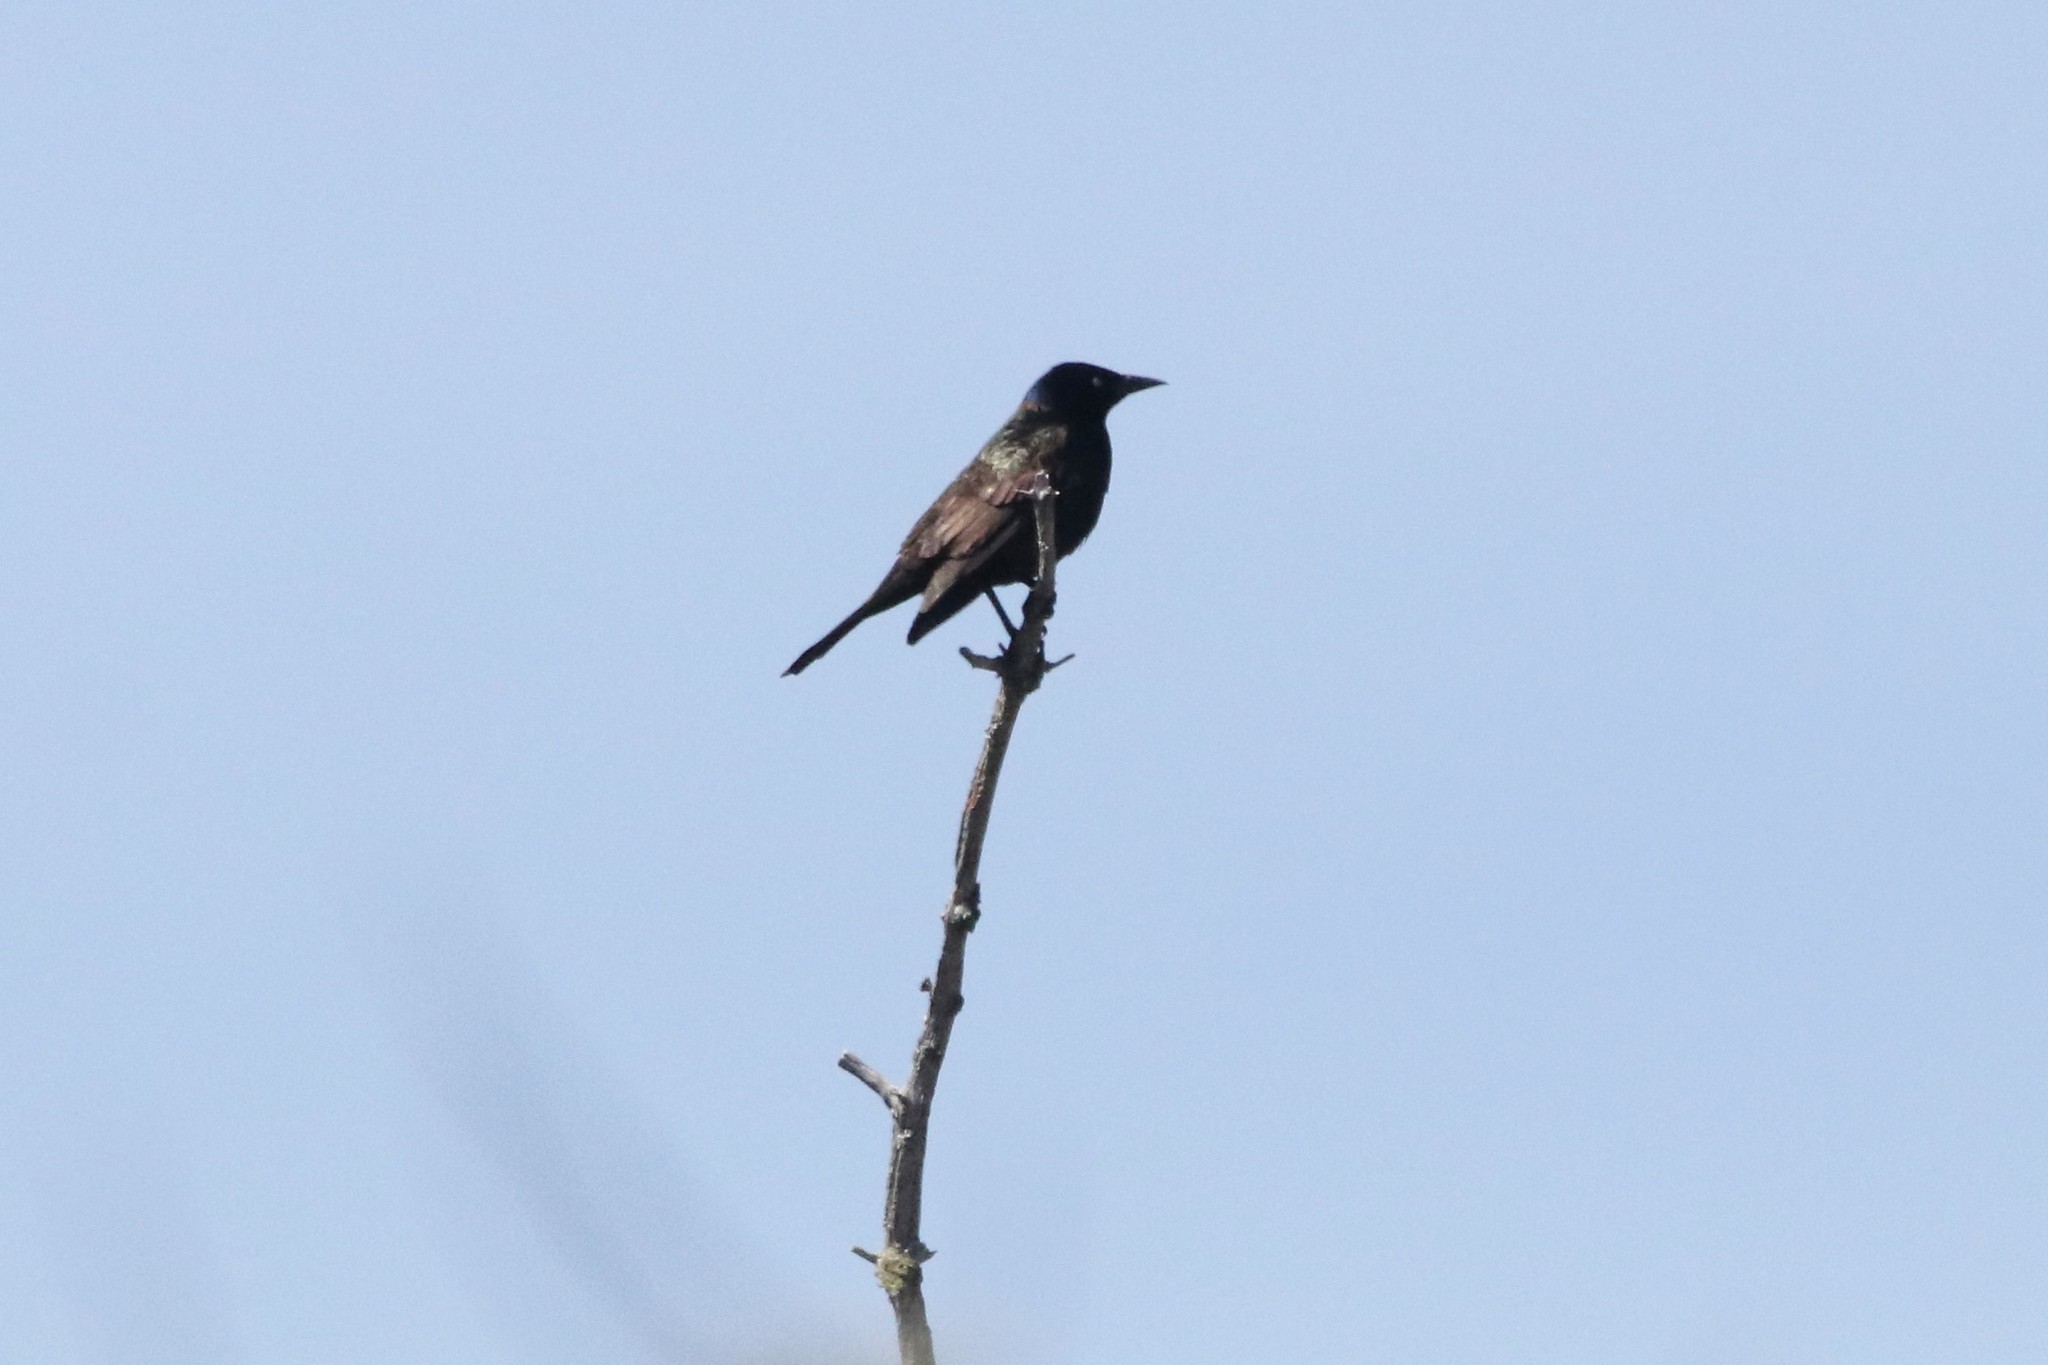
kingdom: Animalia
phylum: Chordata
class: Aves
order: Passeriformes
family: Icteridae
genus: Quiscalus
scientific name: Quiscalus quiscula
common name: Common grackle
